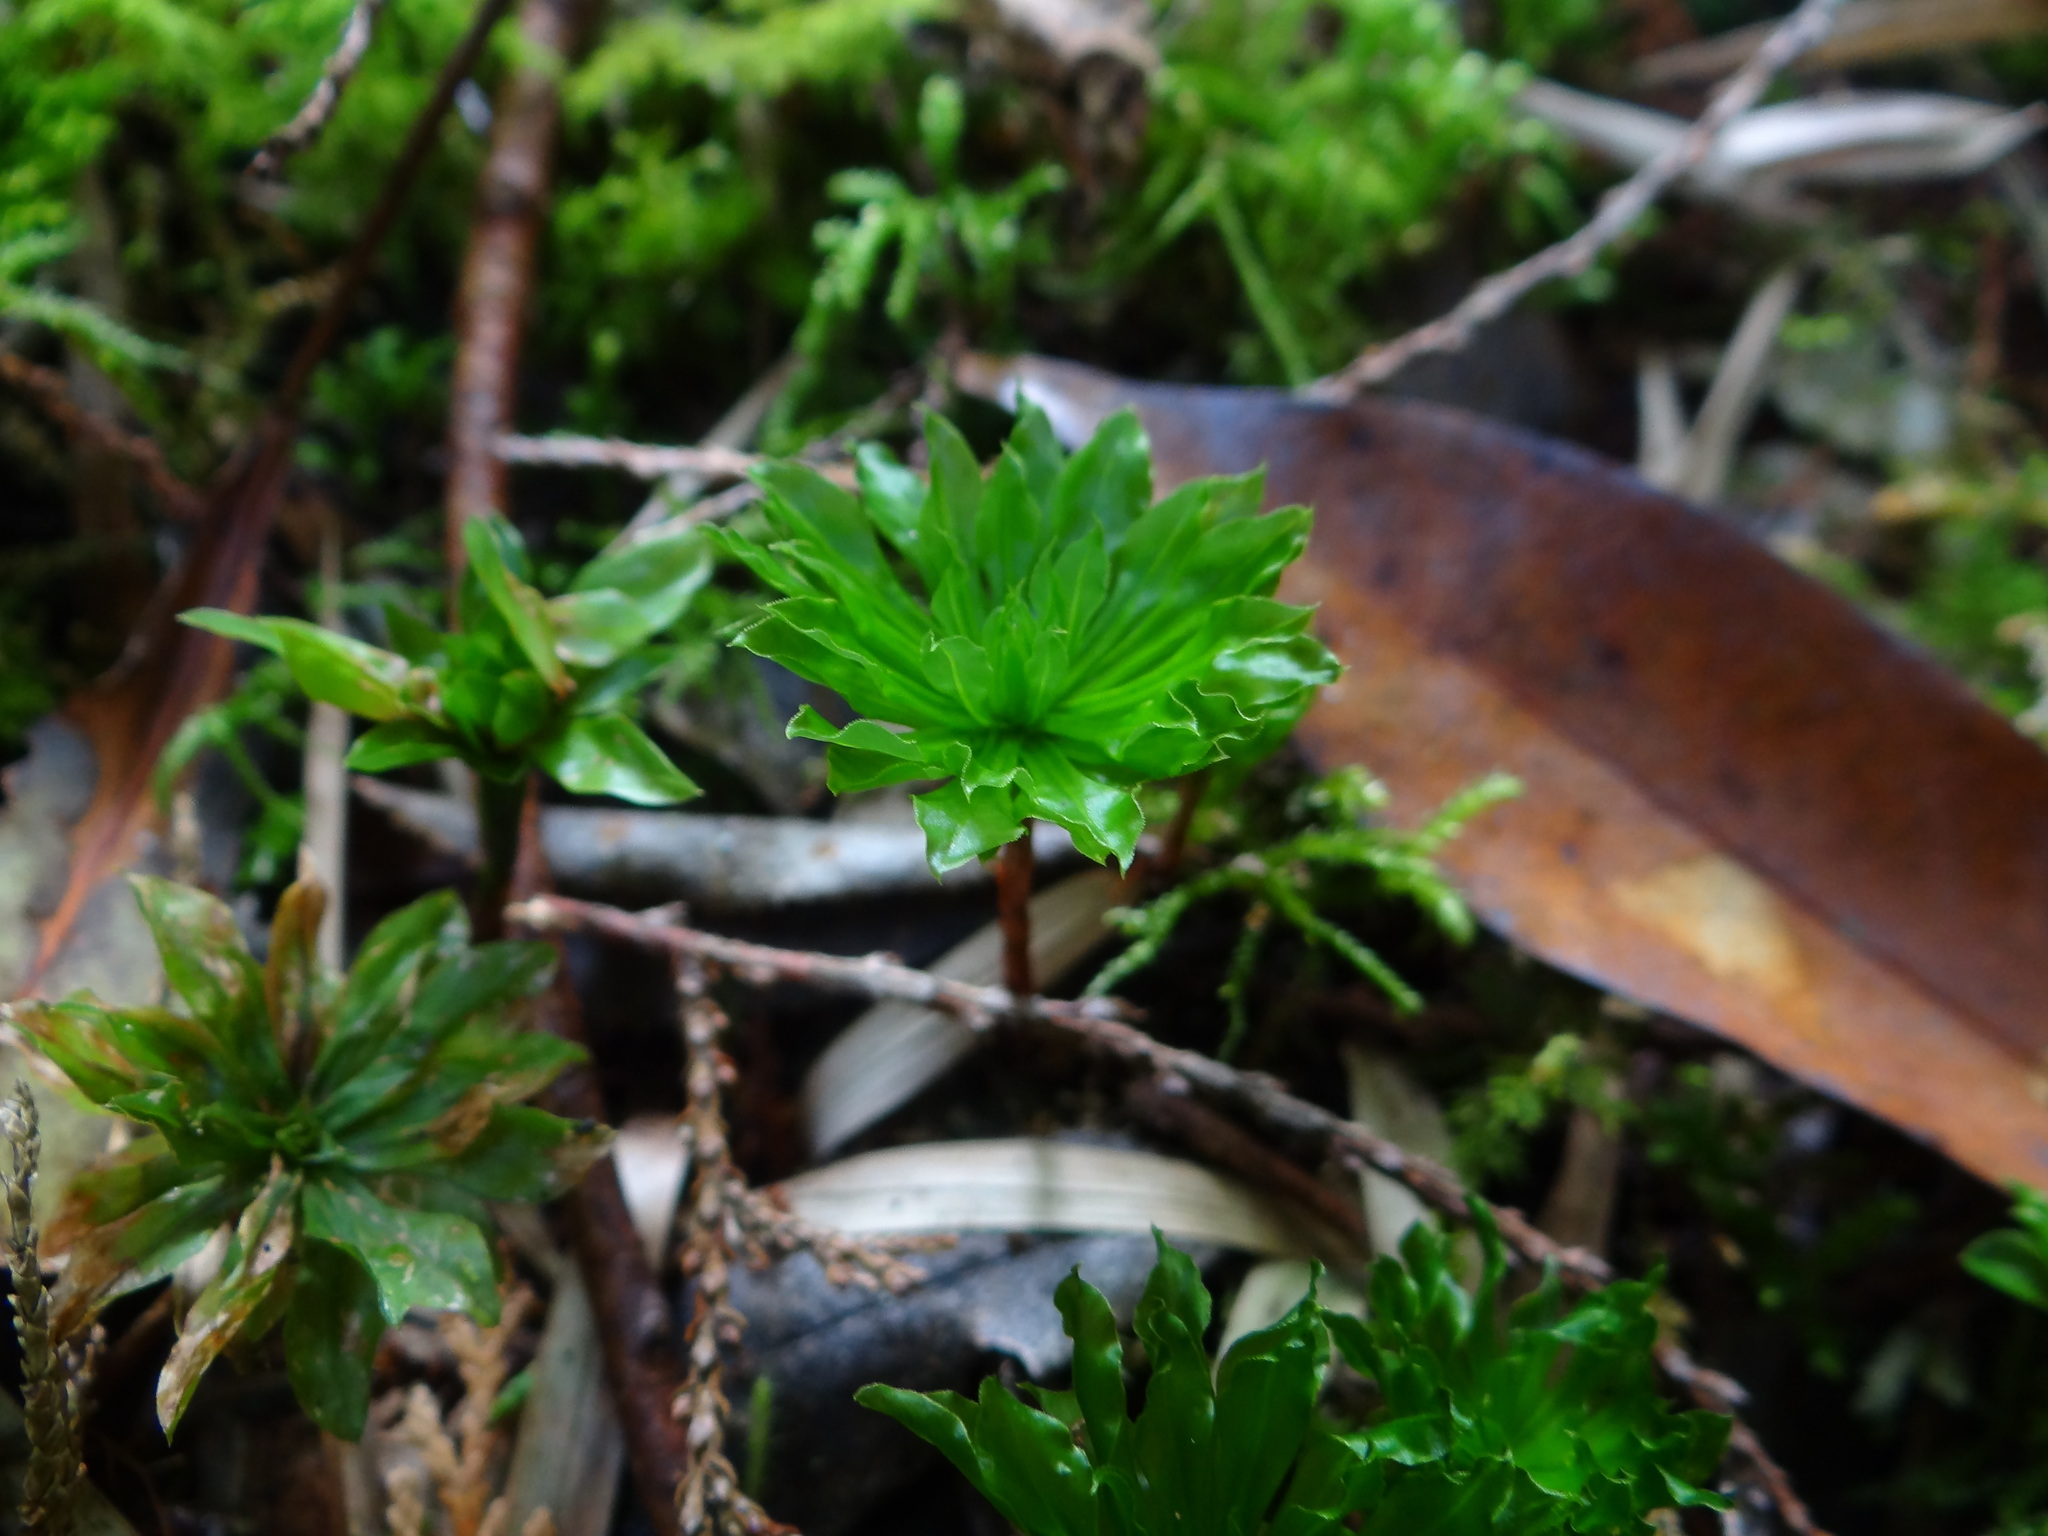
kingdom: Plantae
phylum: Bryophyta
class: Bryopsida
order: Bryales
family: Bryaceae
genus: Rhodobryum
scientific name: Rhodobryum giganteum
